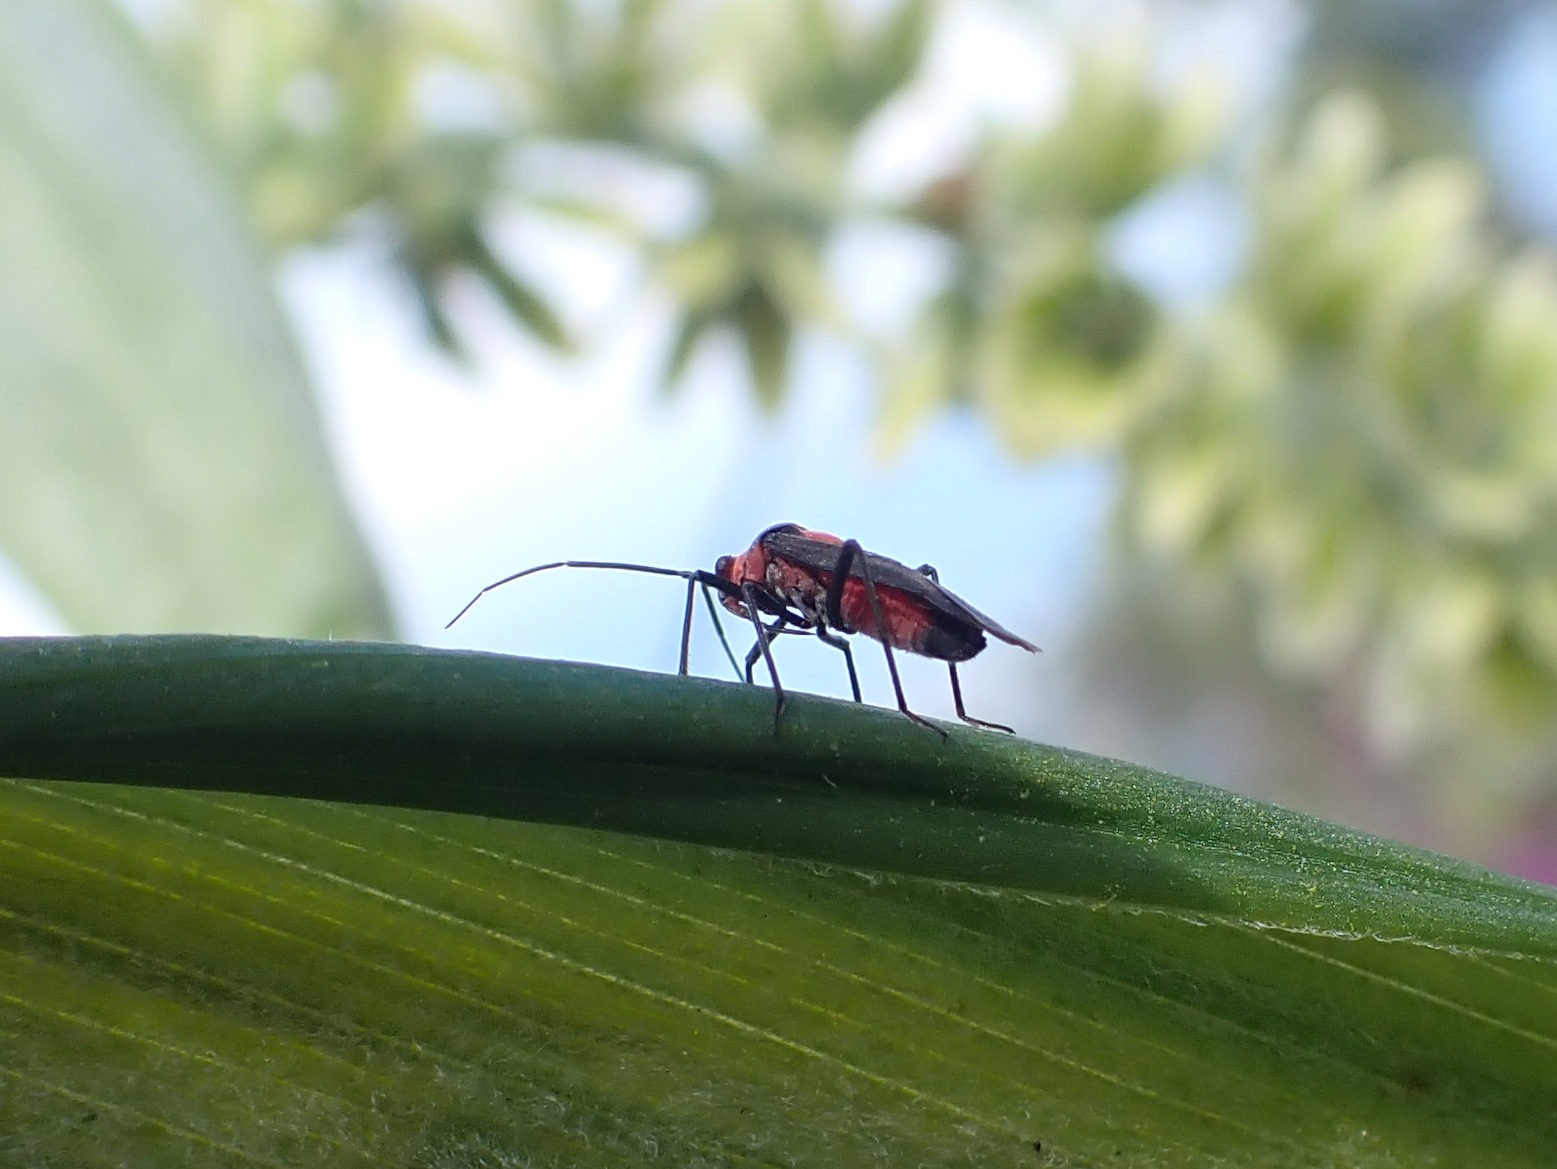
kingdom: Animalia
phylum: Arthropoda
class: Insecta
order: Hemiptera
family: Miridae
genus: Prepops
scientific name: Prepops nigripilus
